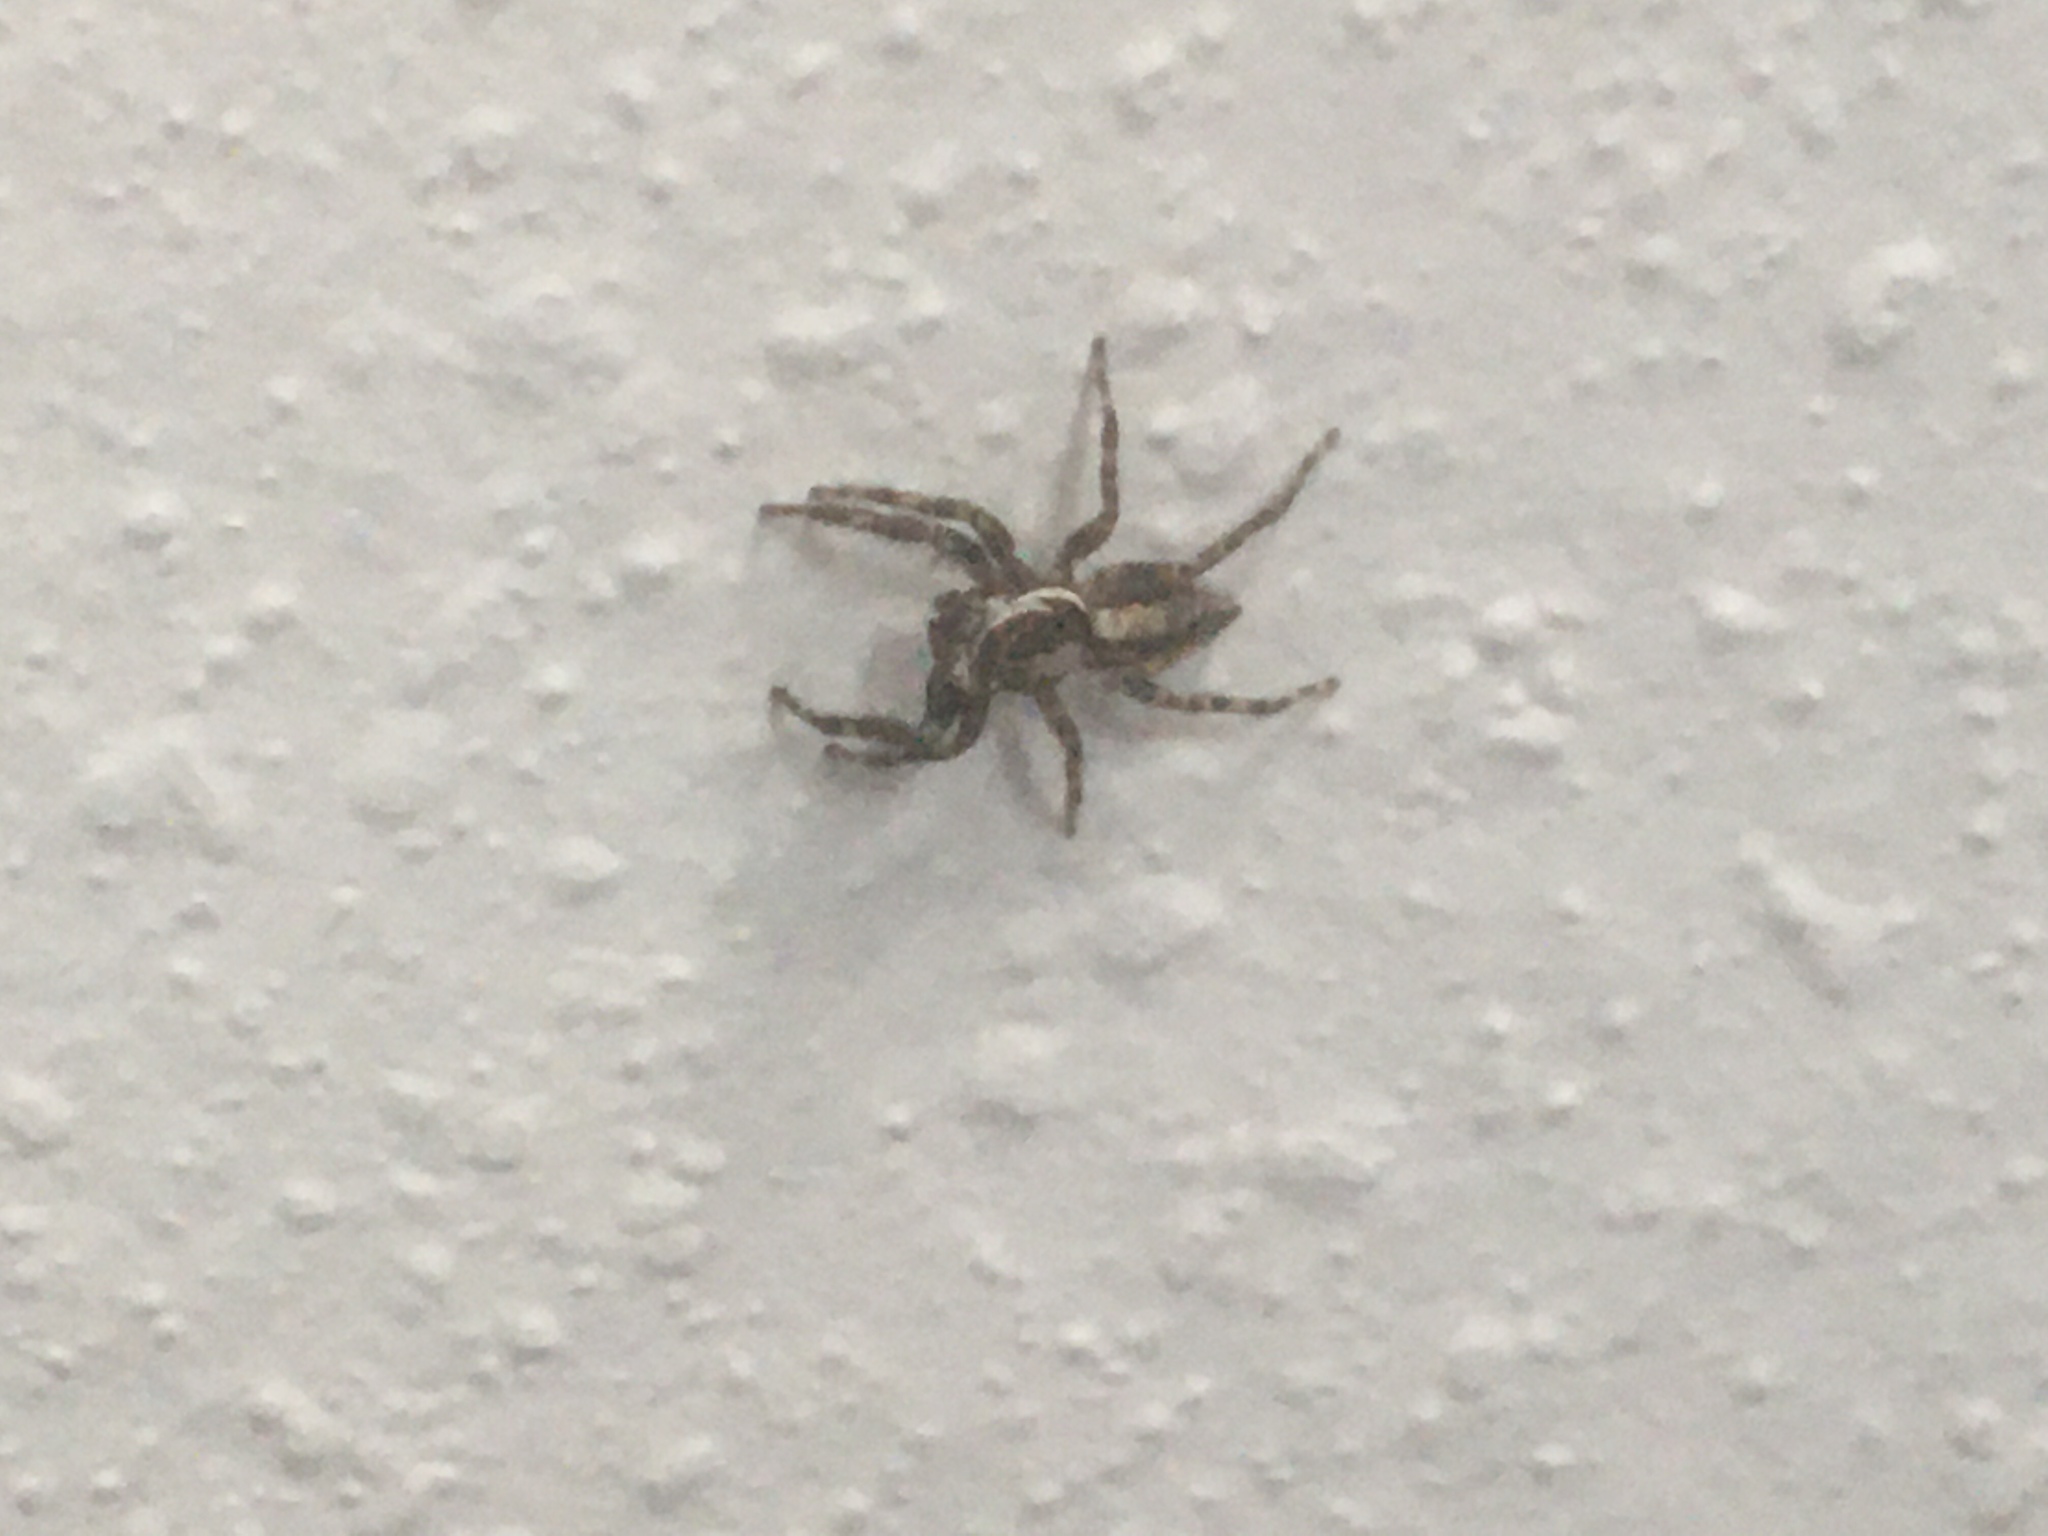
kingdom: Animalia
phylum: Arthropoda
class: Arachnida
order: Araneae
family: Salticidae
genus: Menemerus
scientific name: Menemerus bivittatus
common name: Gray wall jumper
